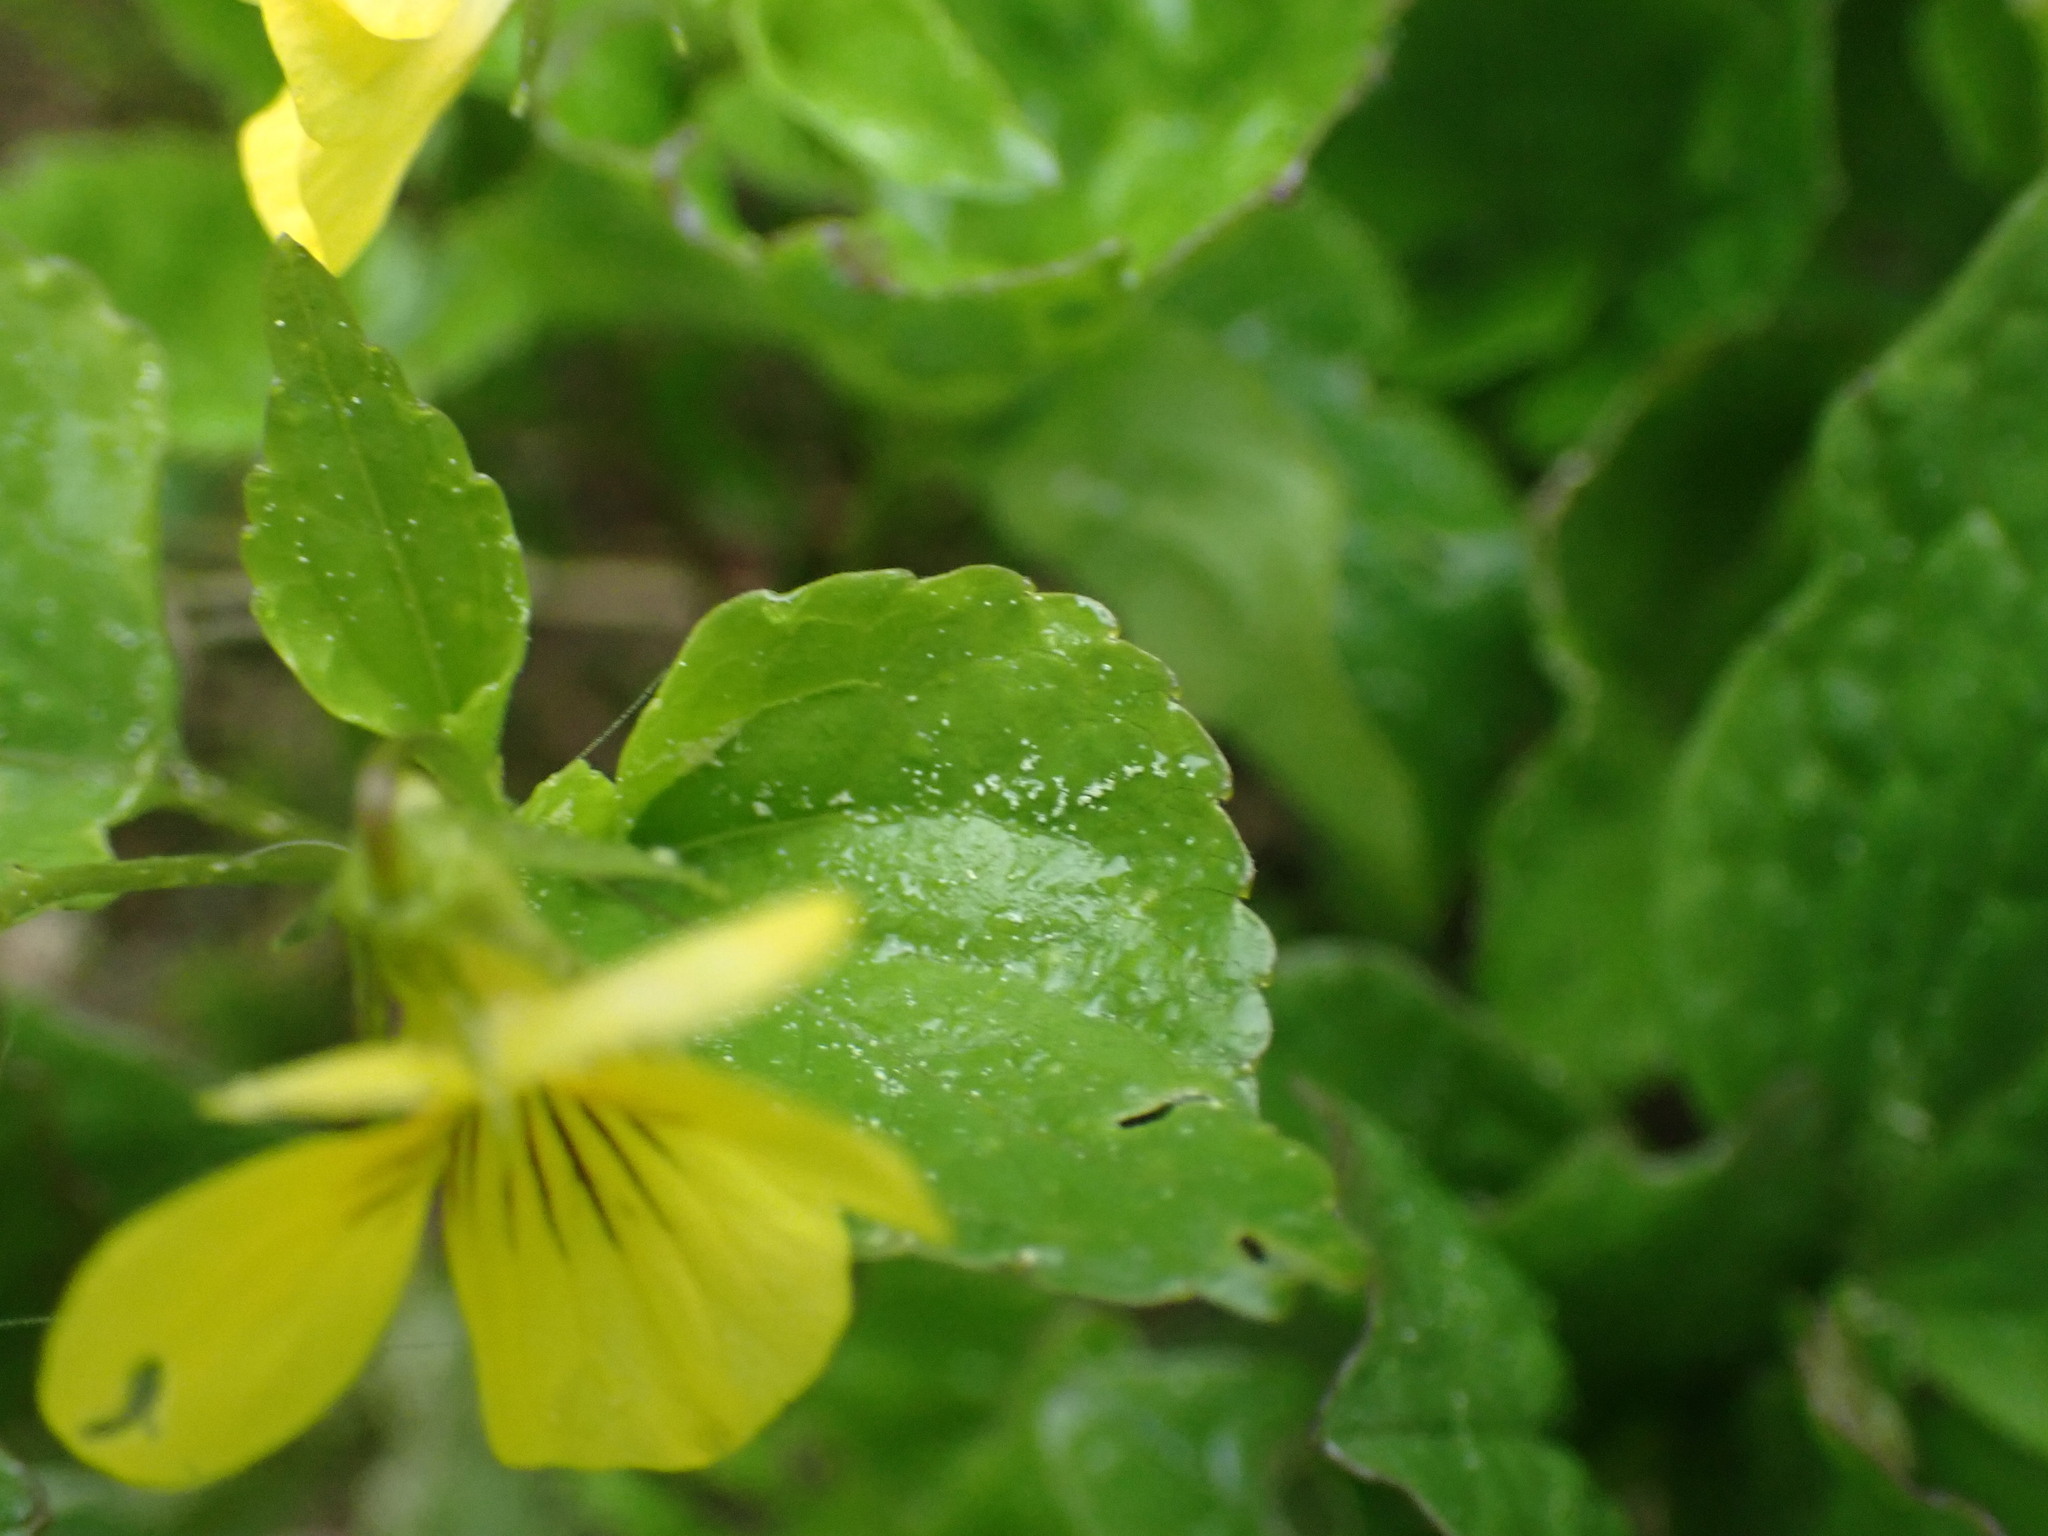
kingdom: Plantae
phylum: Tracheophyta
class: Magnoliopsida
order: Malpighiales
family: Violaceae
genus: Viola
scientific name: Viola glabella
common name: Stream violet
